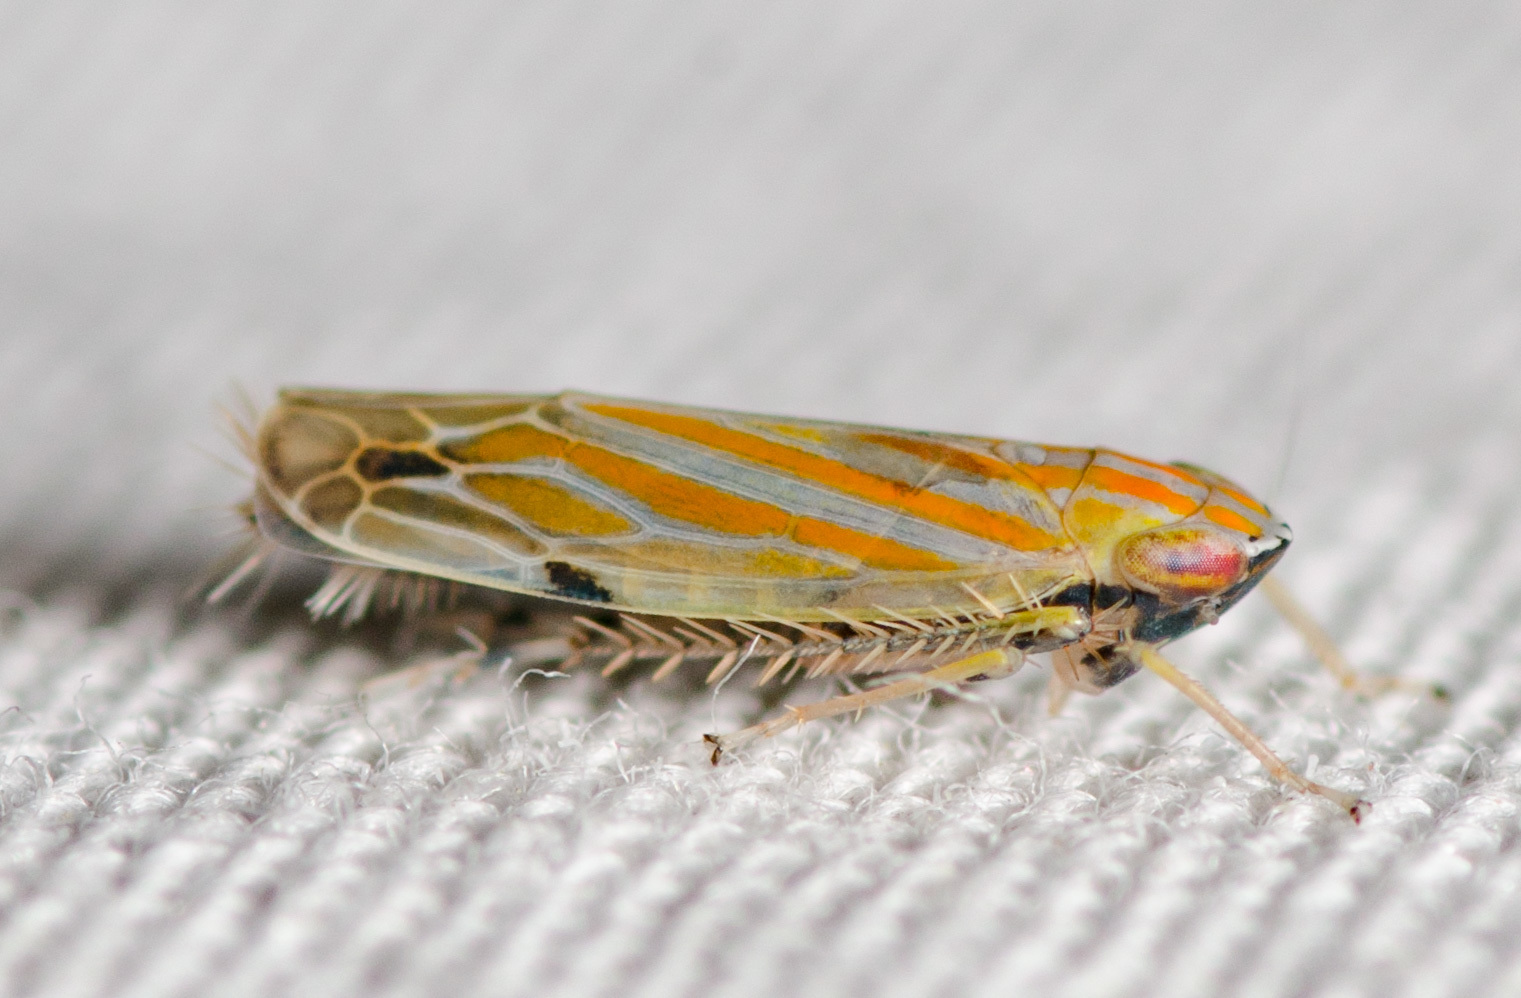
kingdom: Animalia
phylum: Arthropoda
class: Insecta
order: Hemiptera
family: Cicadellidae
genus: Deltanus
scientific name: Deltanus texanus
